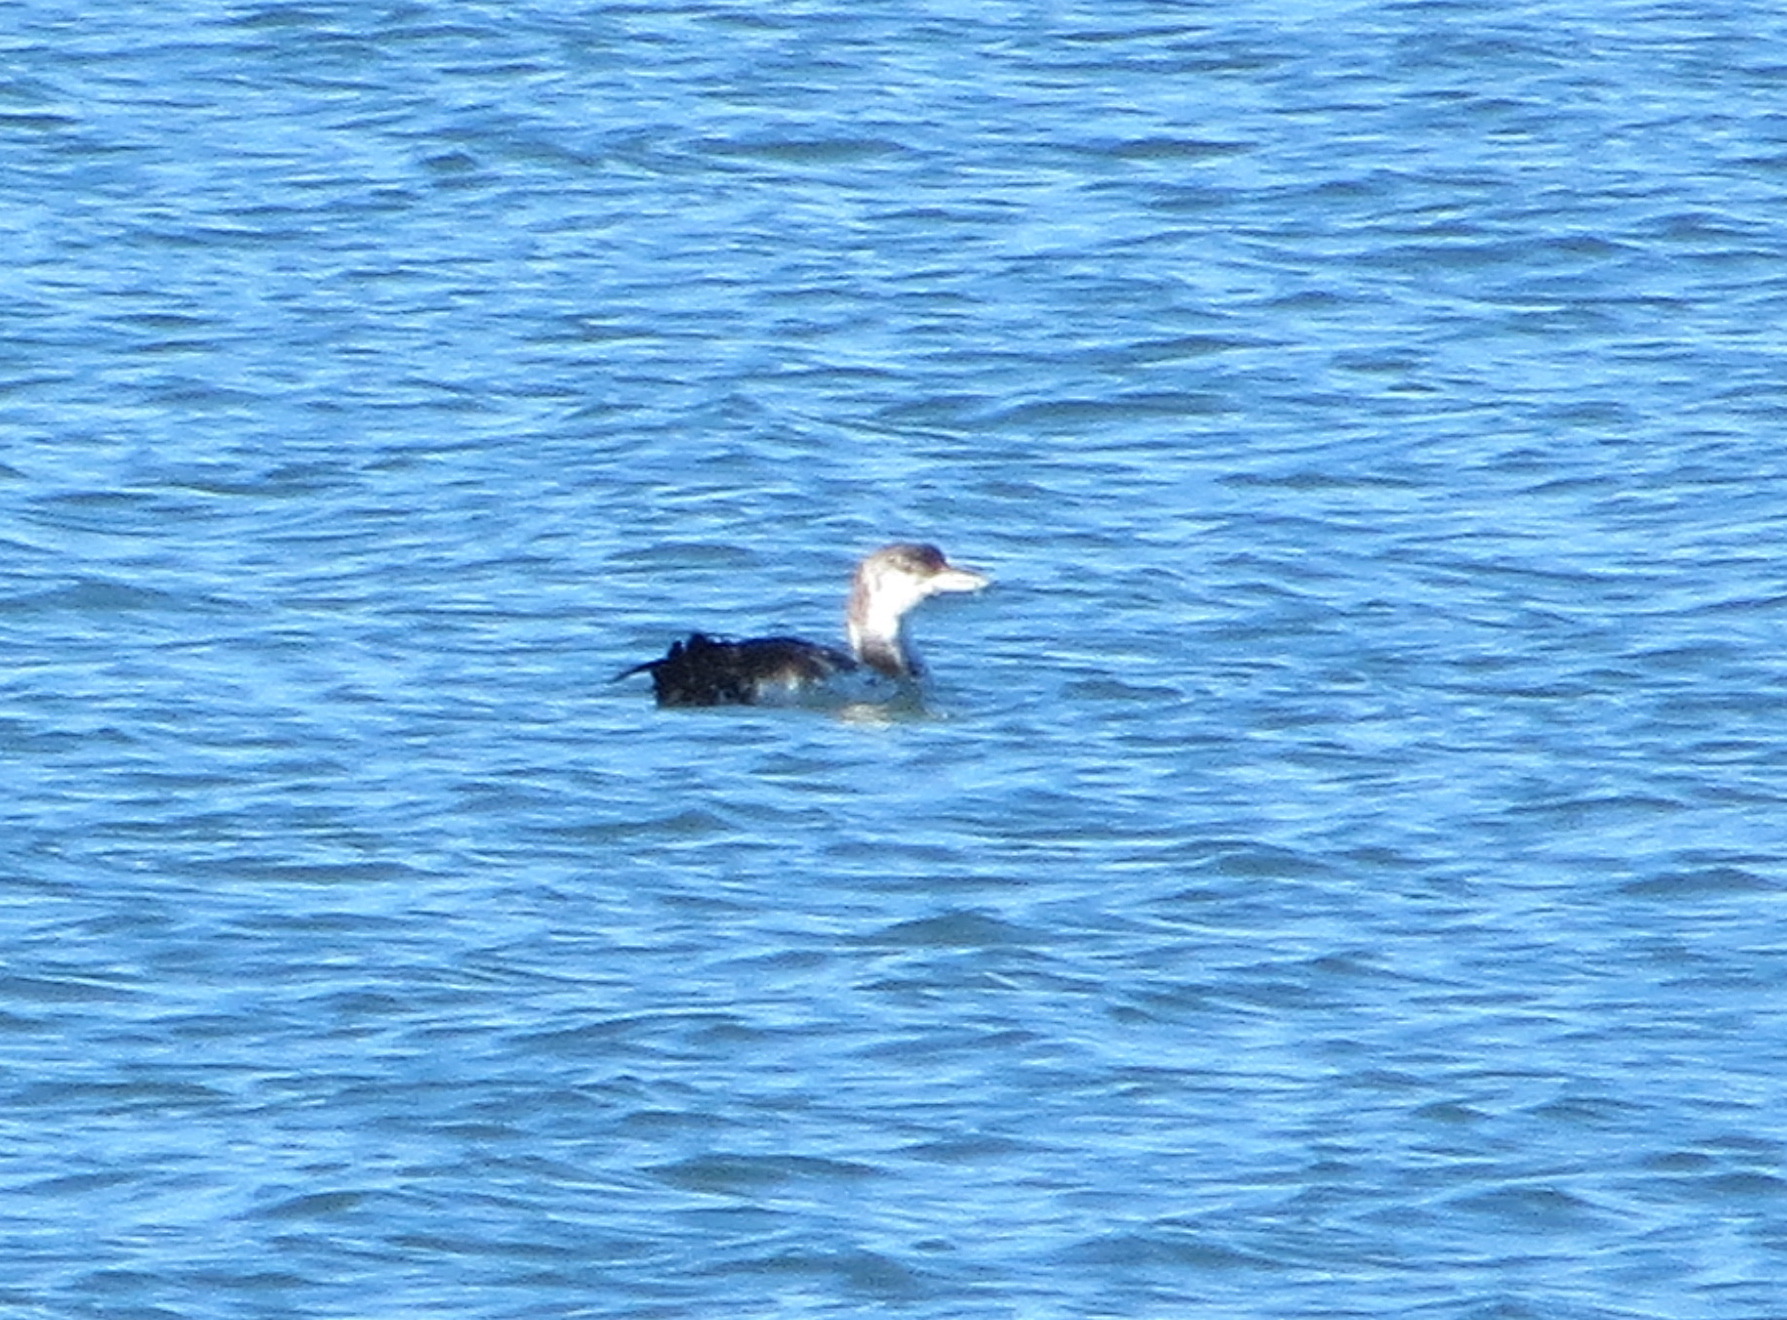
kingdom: Animalia
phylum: Chordata
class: Aves
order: Gaviiformes
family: Gaviidae
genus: Gavia
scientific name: Gavia immer
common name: Common loon
